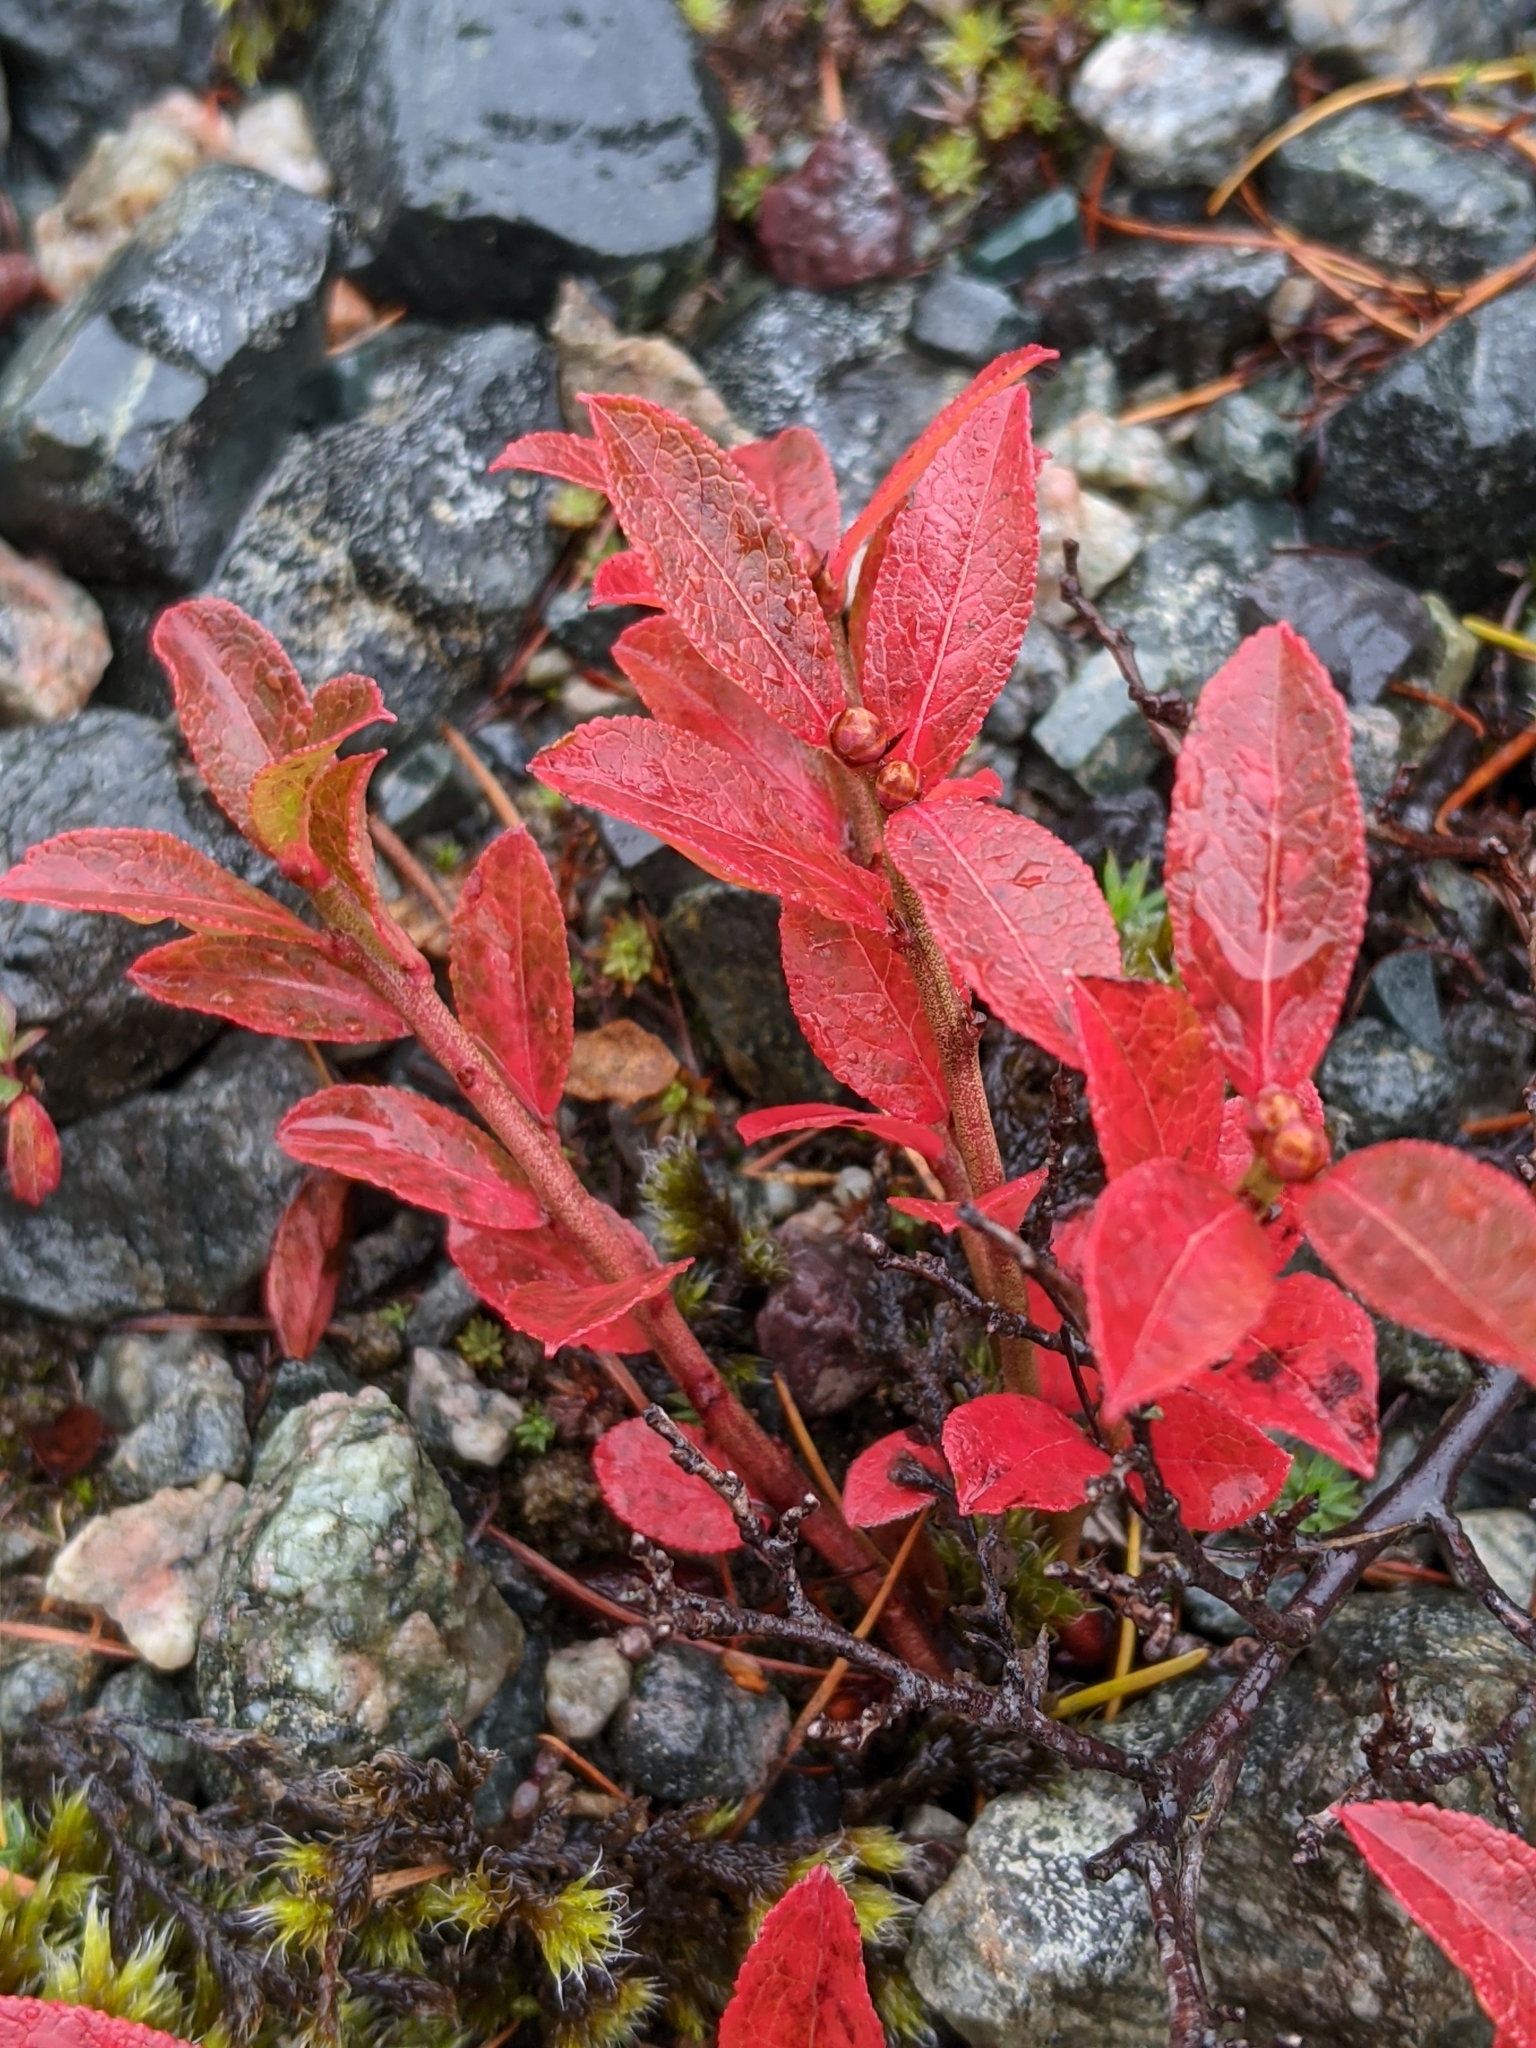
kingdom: Plantae
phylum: Tracheophyta
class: Magnoliopsida
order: Ericales
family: Ericaceae
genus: Vaccinium
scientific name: Vaccinium angustifolium
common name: Early lowbush blueberry
